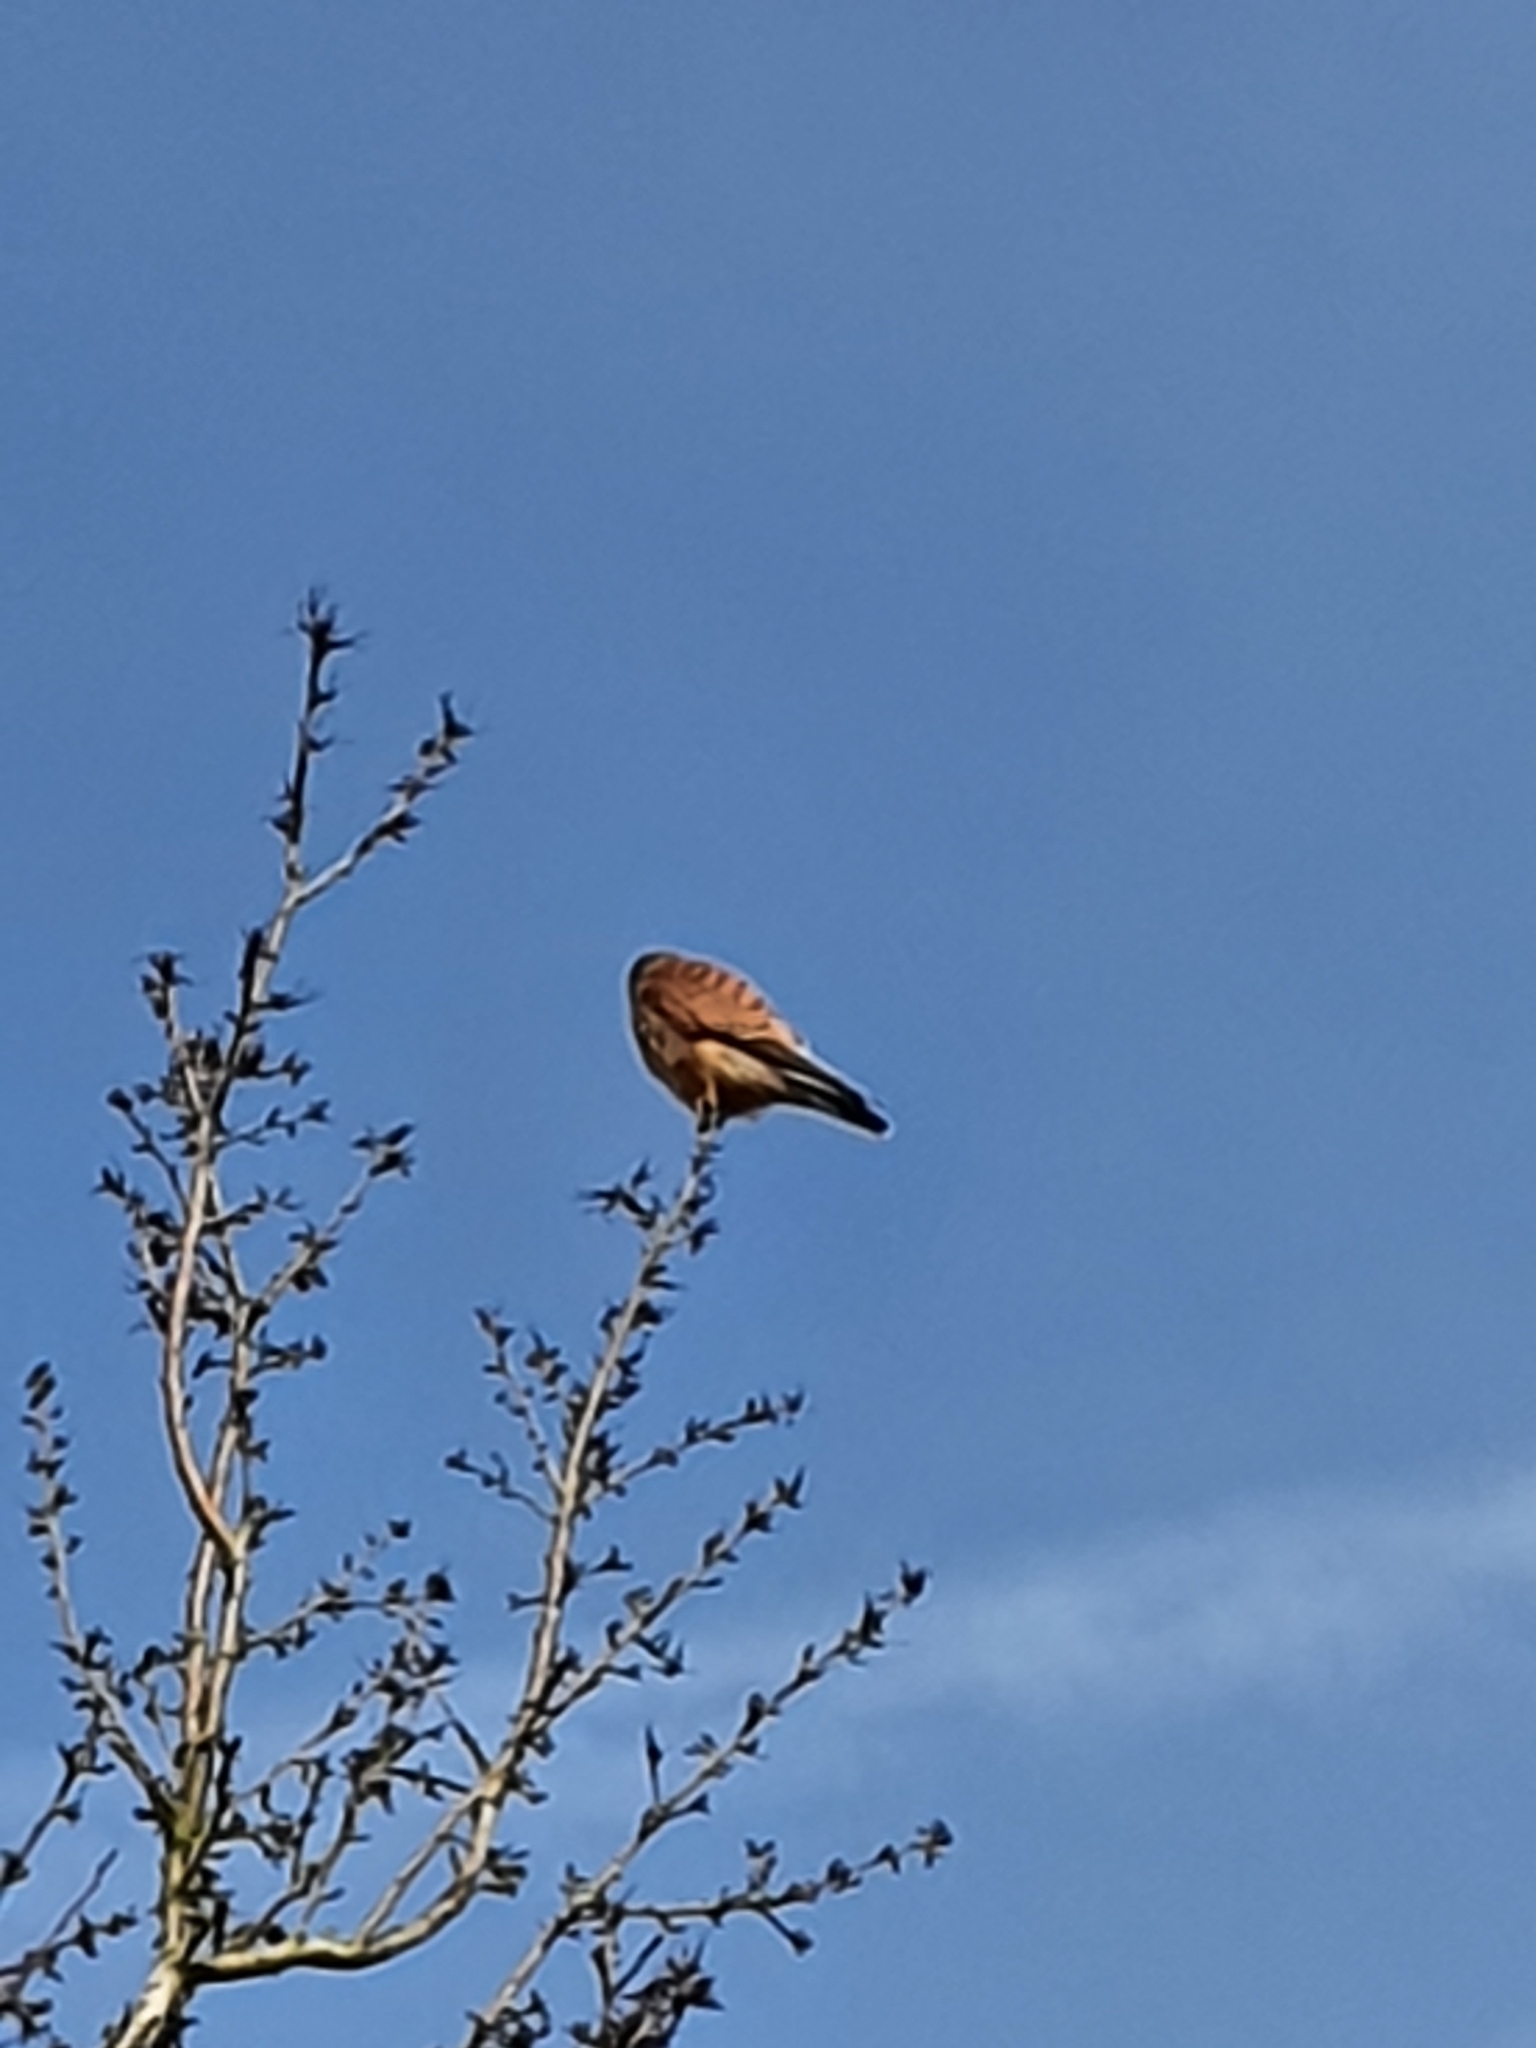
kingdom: Animalia
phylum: Chordata
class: Aves
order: Falconiformes
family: Falconidae
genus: Falco
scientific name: Falco tinnunculus
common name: Common kestrel
